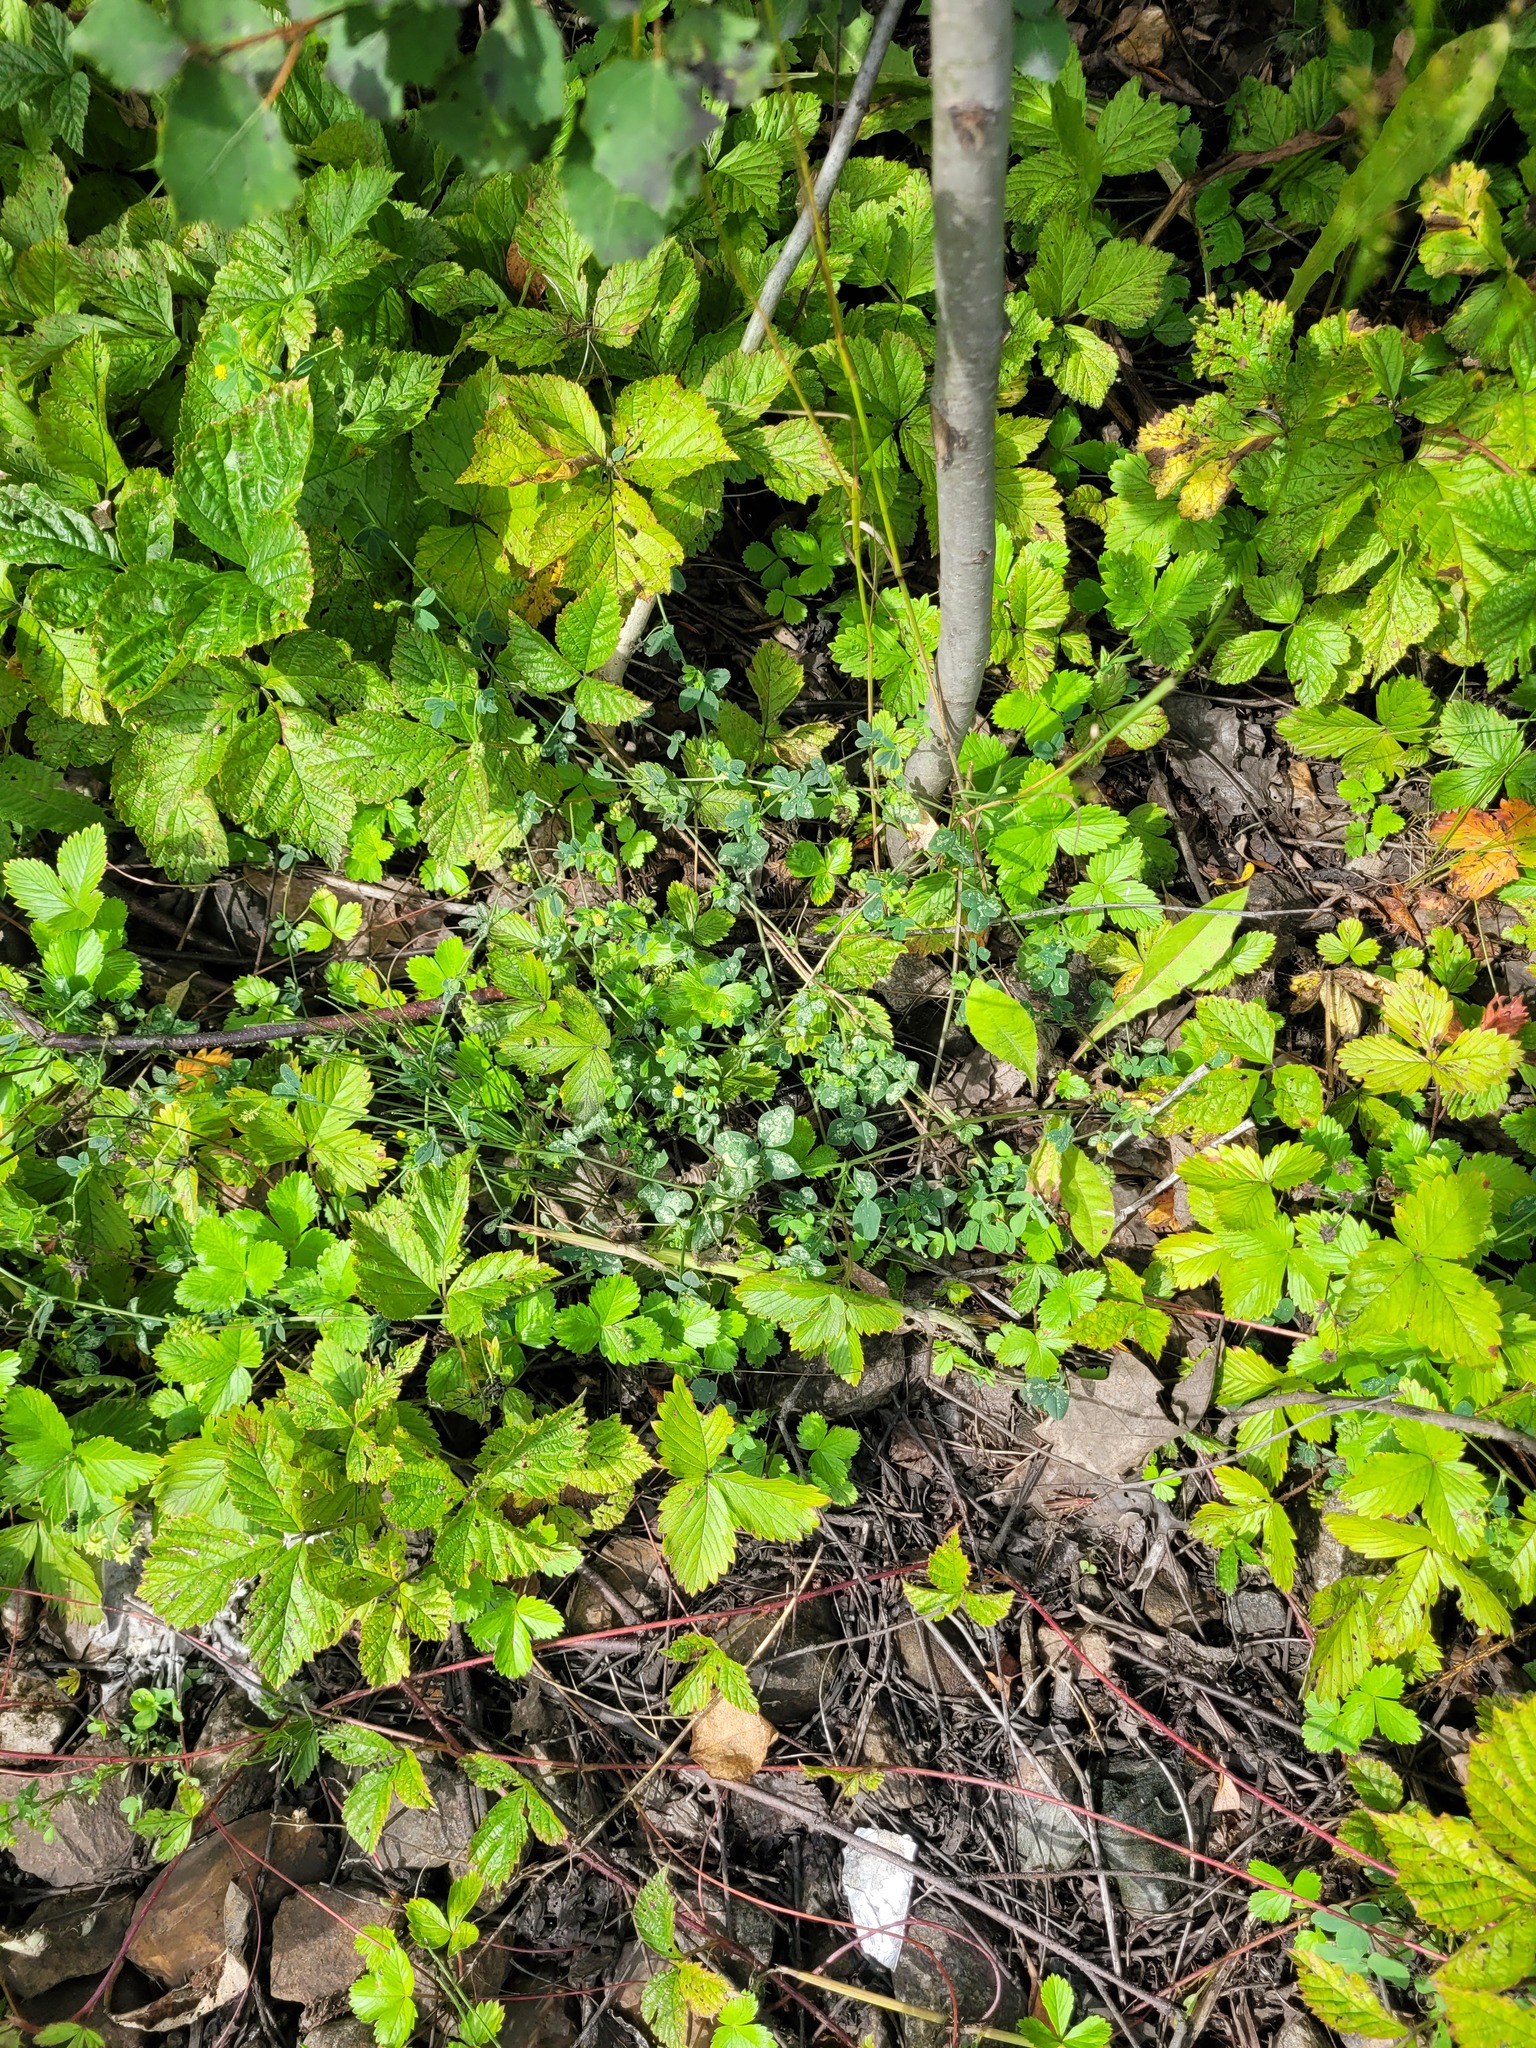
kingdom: Plantae
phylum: Tracheophyta
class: Magnoliopsida
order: Fabales
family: Fabaceae
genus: Medicago
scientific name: Medicago lupulina
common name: Black medick
